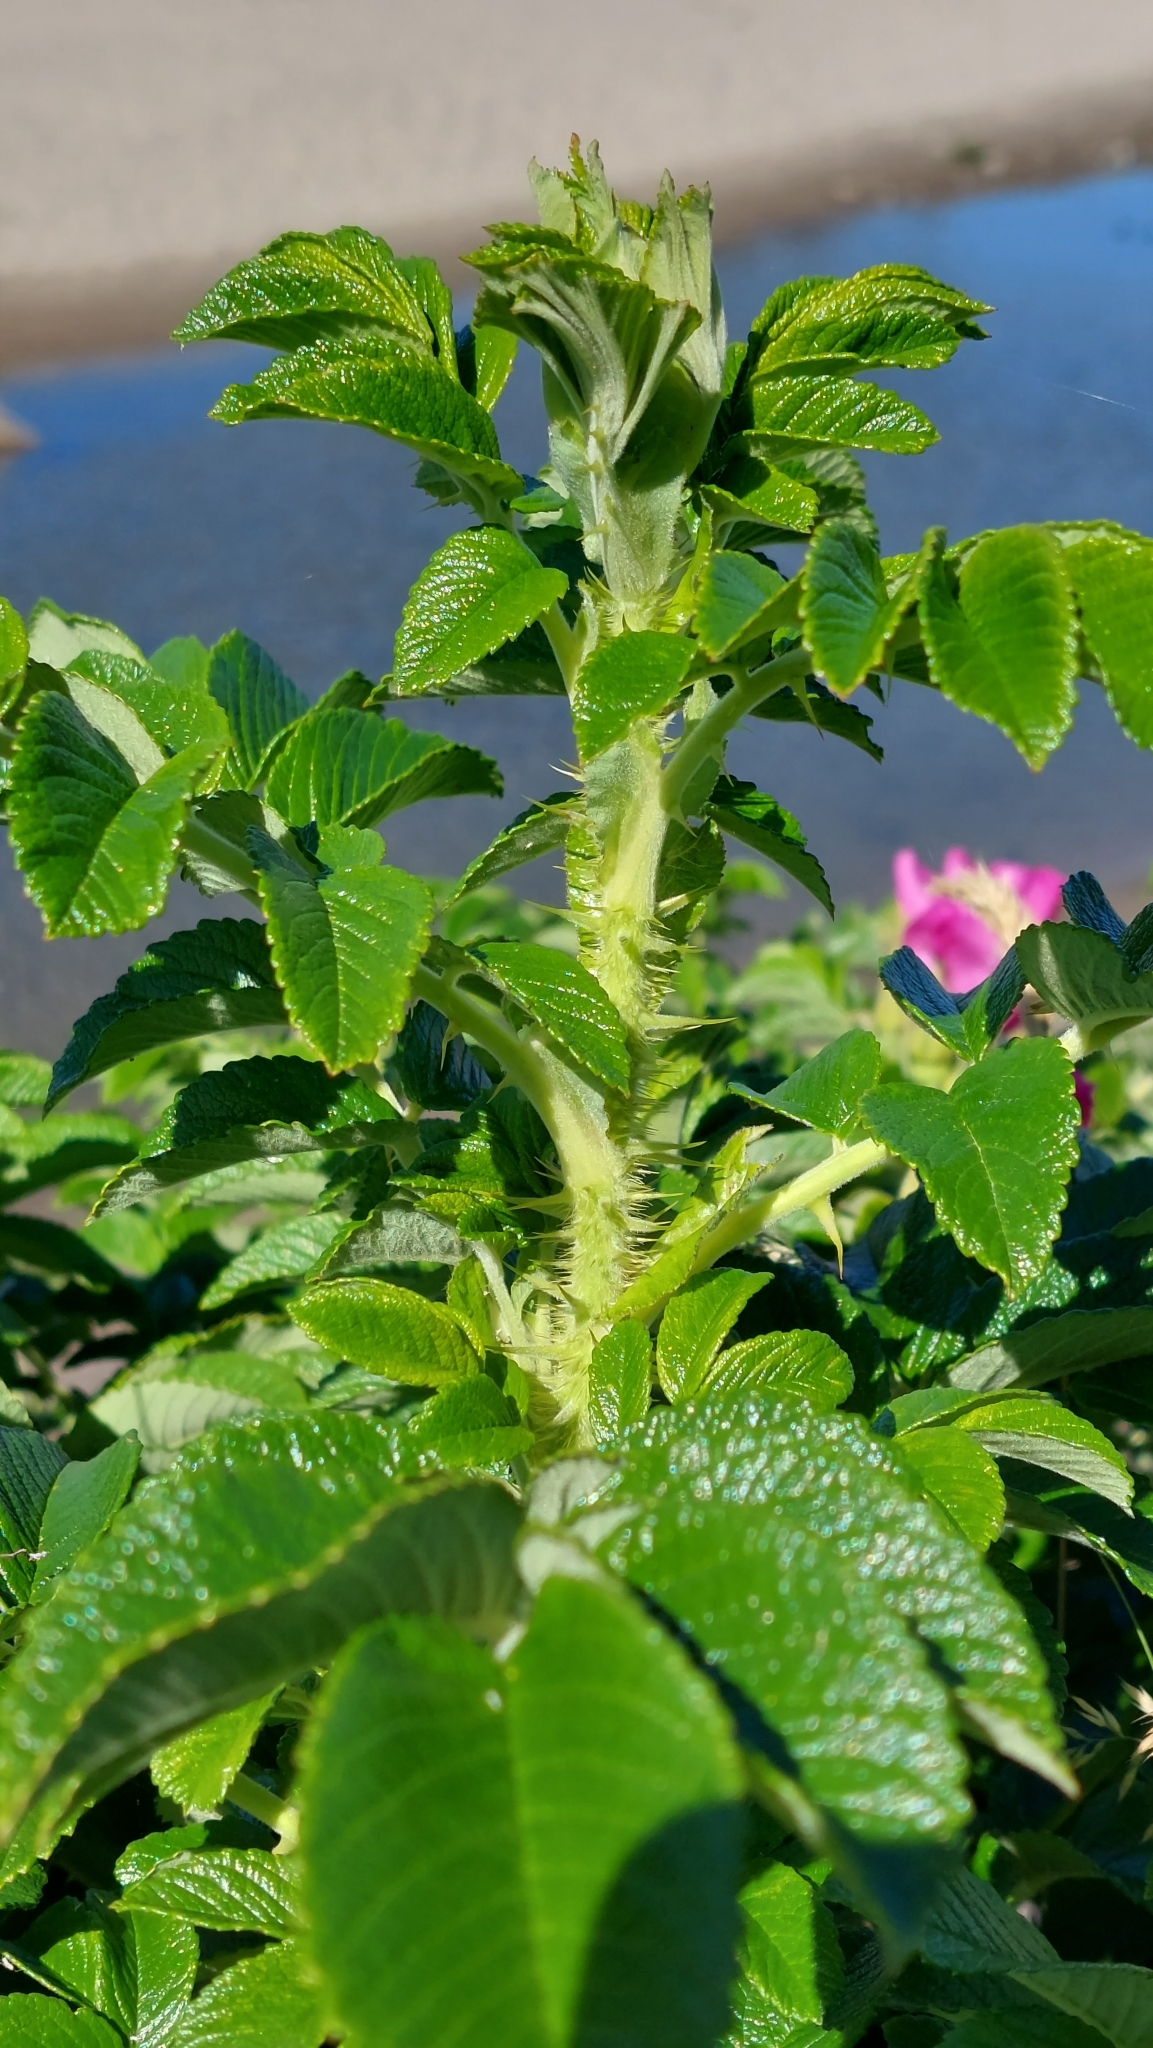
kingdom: Plantae
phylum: Tracheophyta
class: Magnoliopsida
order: Rosales
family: Rosaceae
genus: Rosa
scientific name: Rosa rugosa
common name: Japanese rose
